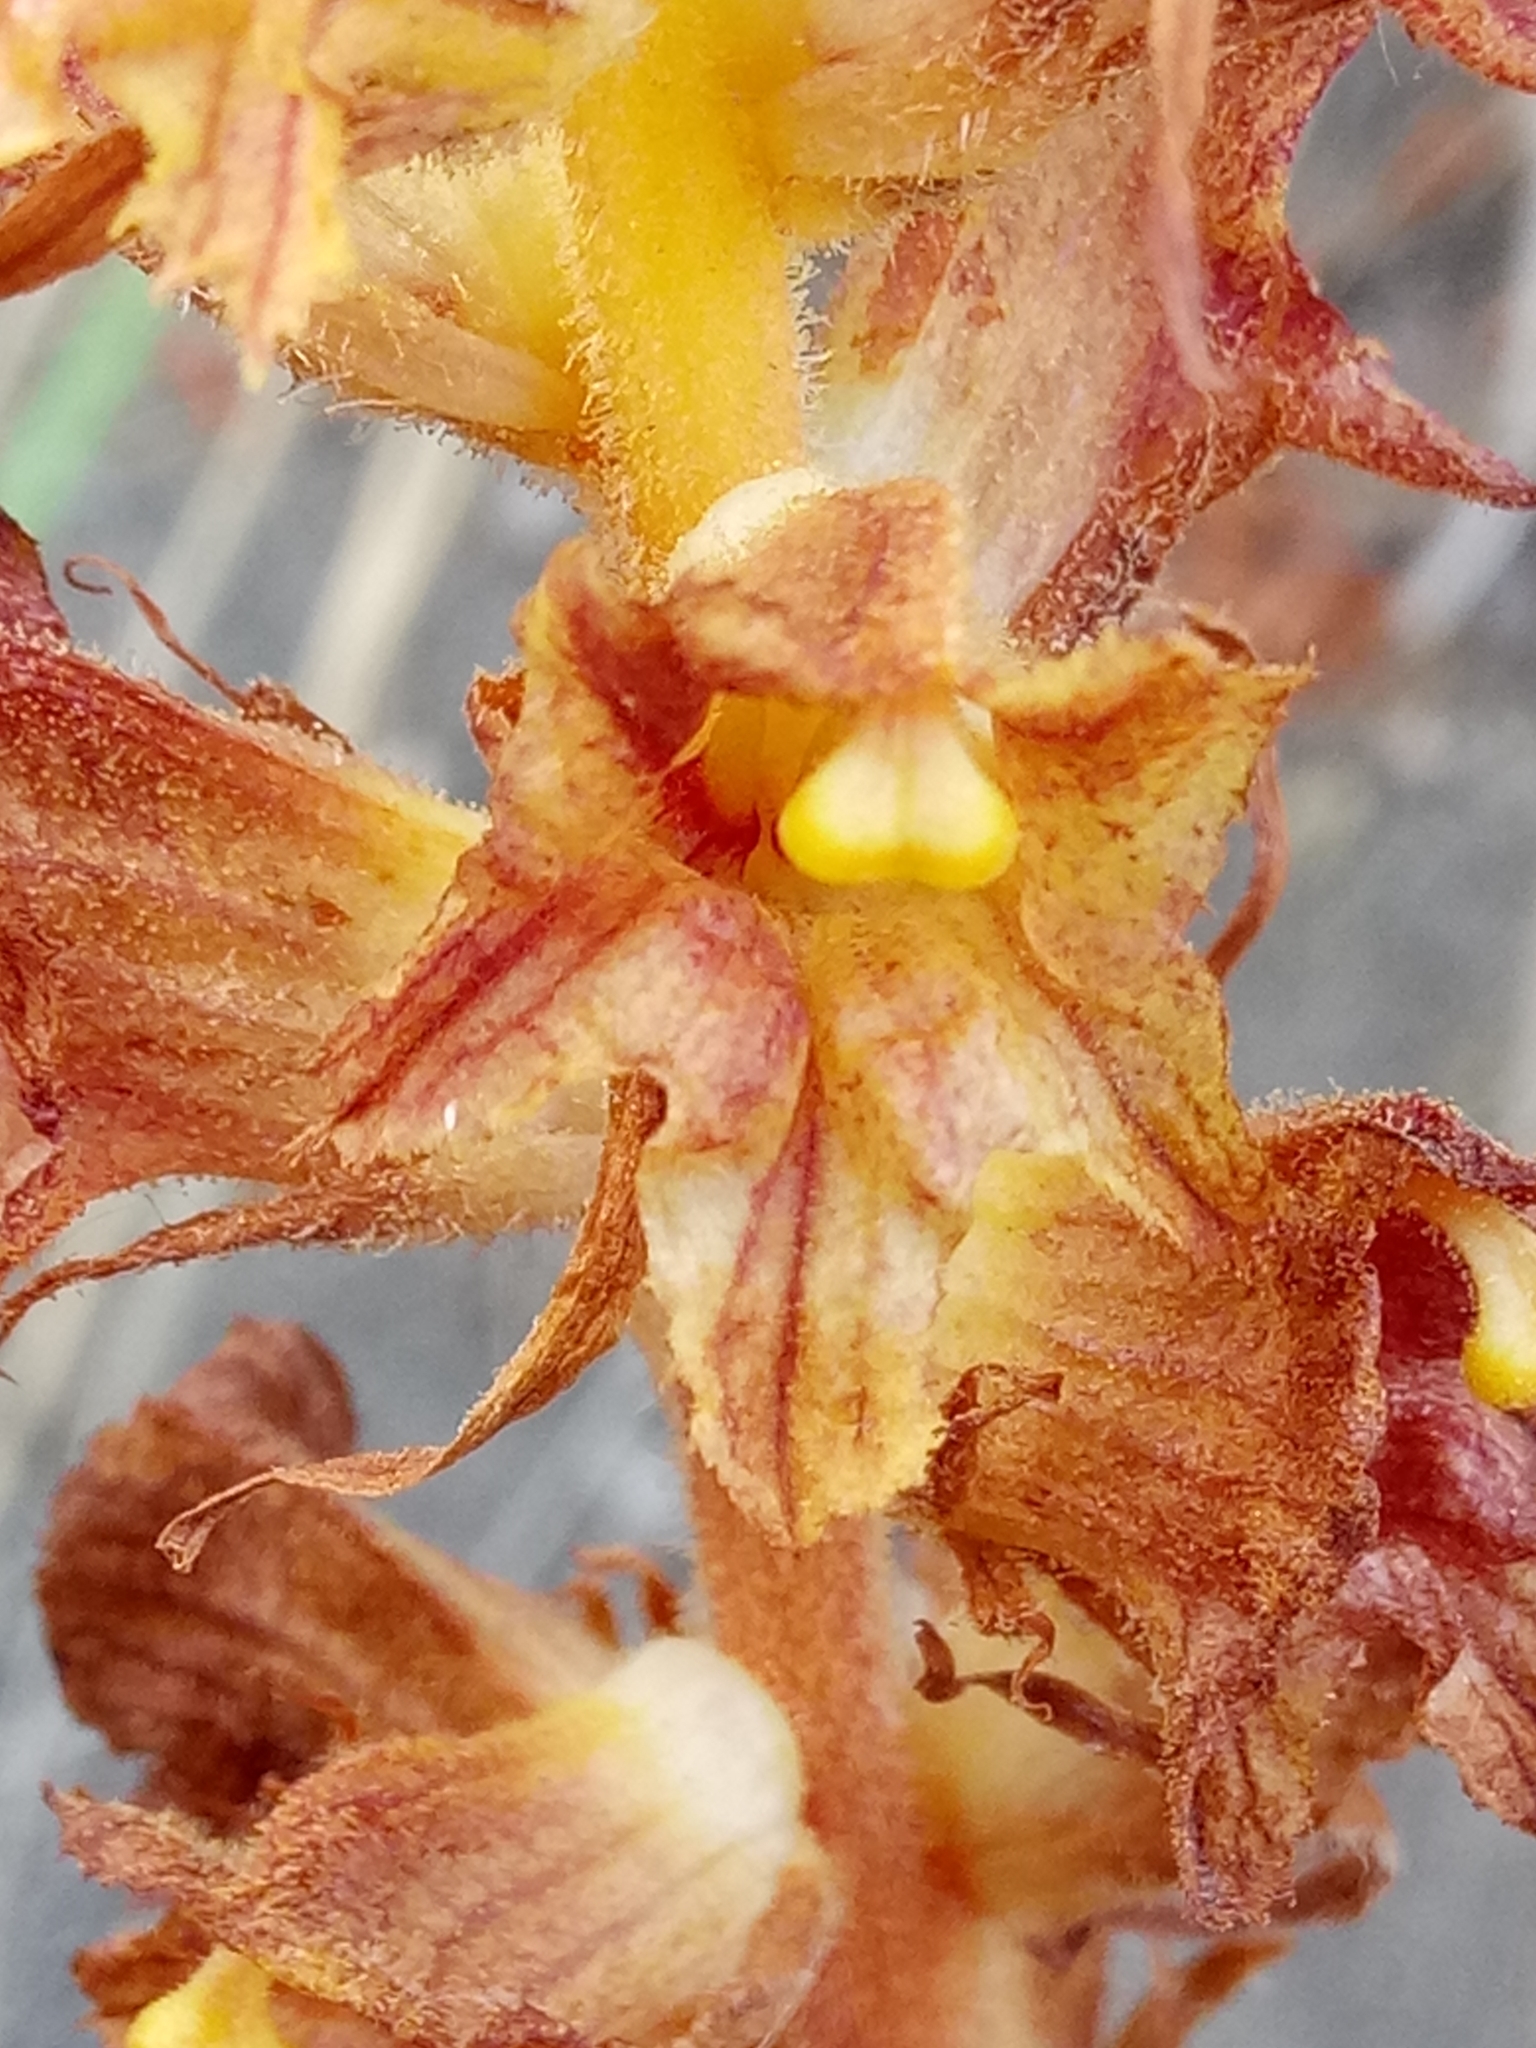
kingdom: Plantae
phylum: Tracheophyta
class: Magnoliopsida
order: Lamiales
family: Orobanchaceae
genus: Orobanche
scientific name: Orobanche variegata
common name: Variegated broomrape
